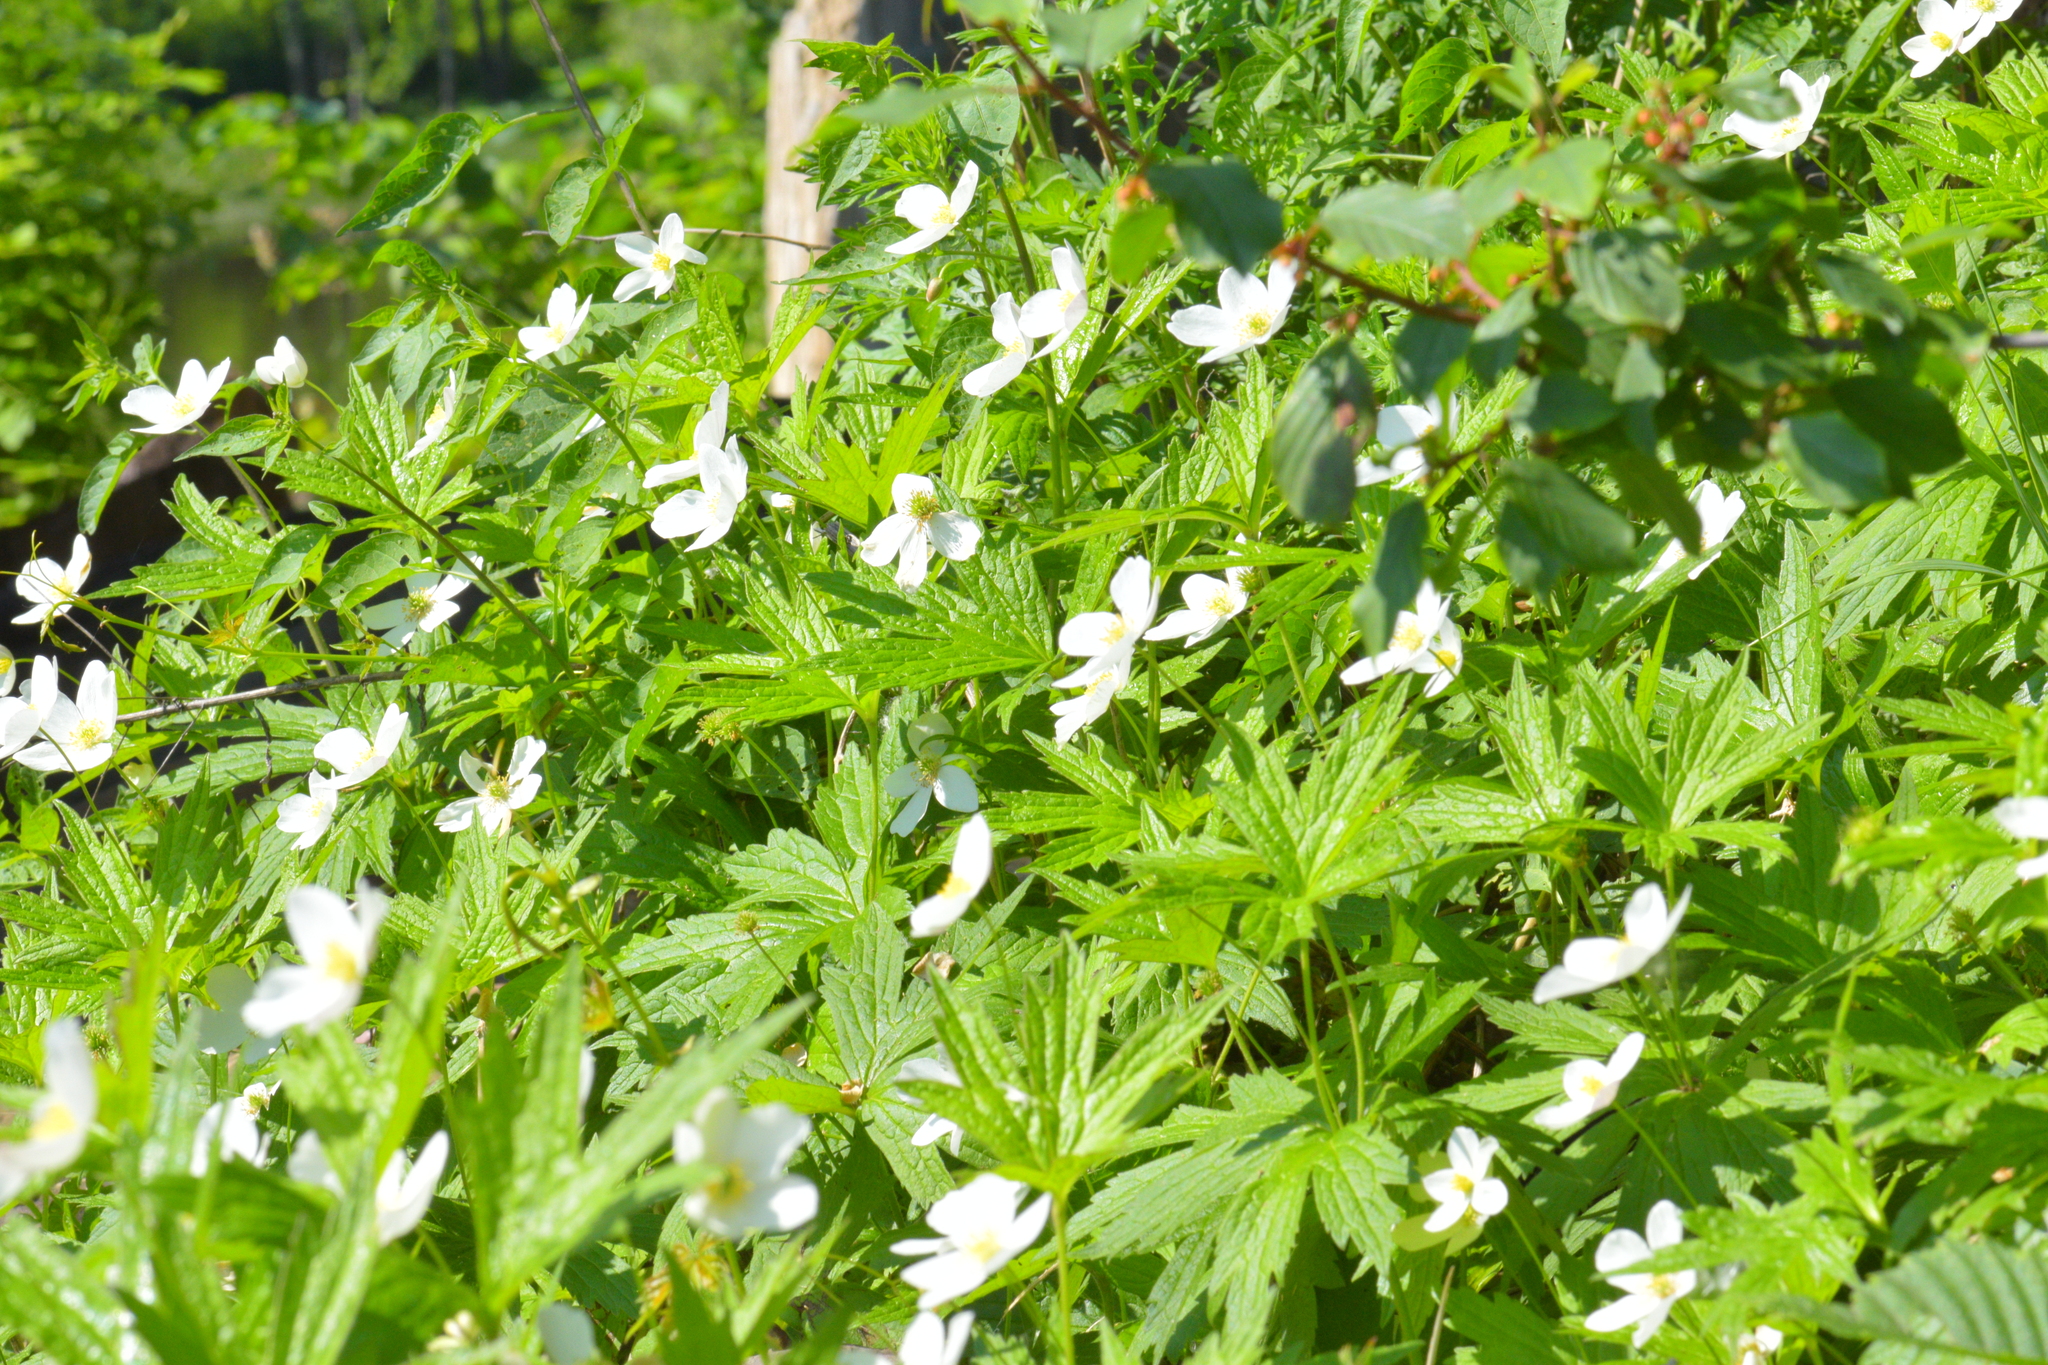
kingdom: Plantae
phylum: Tracheophyta
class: Magnoliopsida
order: Ranunculales
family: Ranunculaceae
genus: Anemonastrum
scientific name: Anemonastrum canadense
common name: Canada anemone
